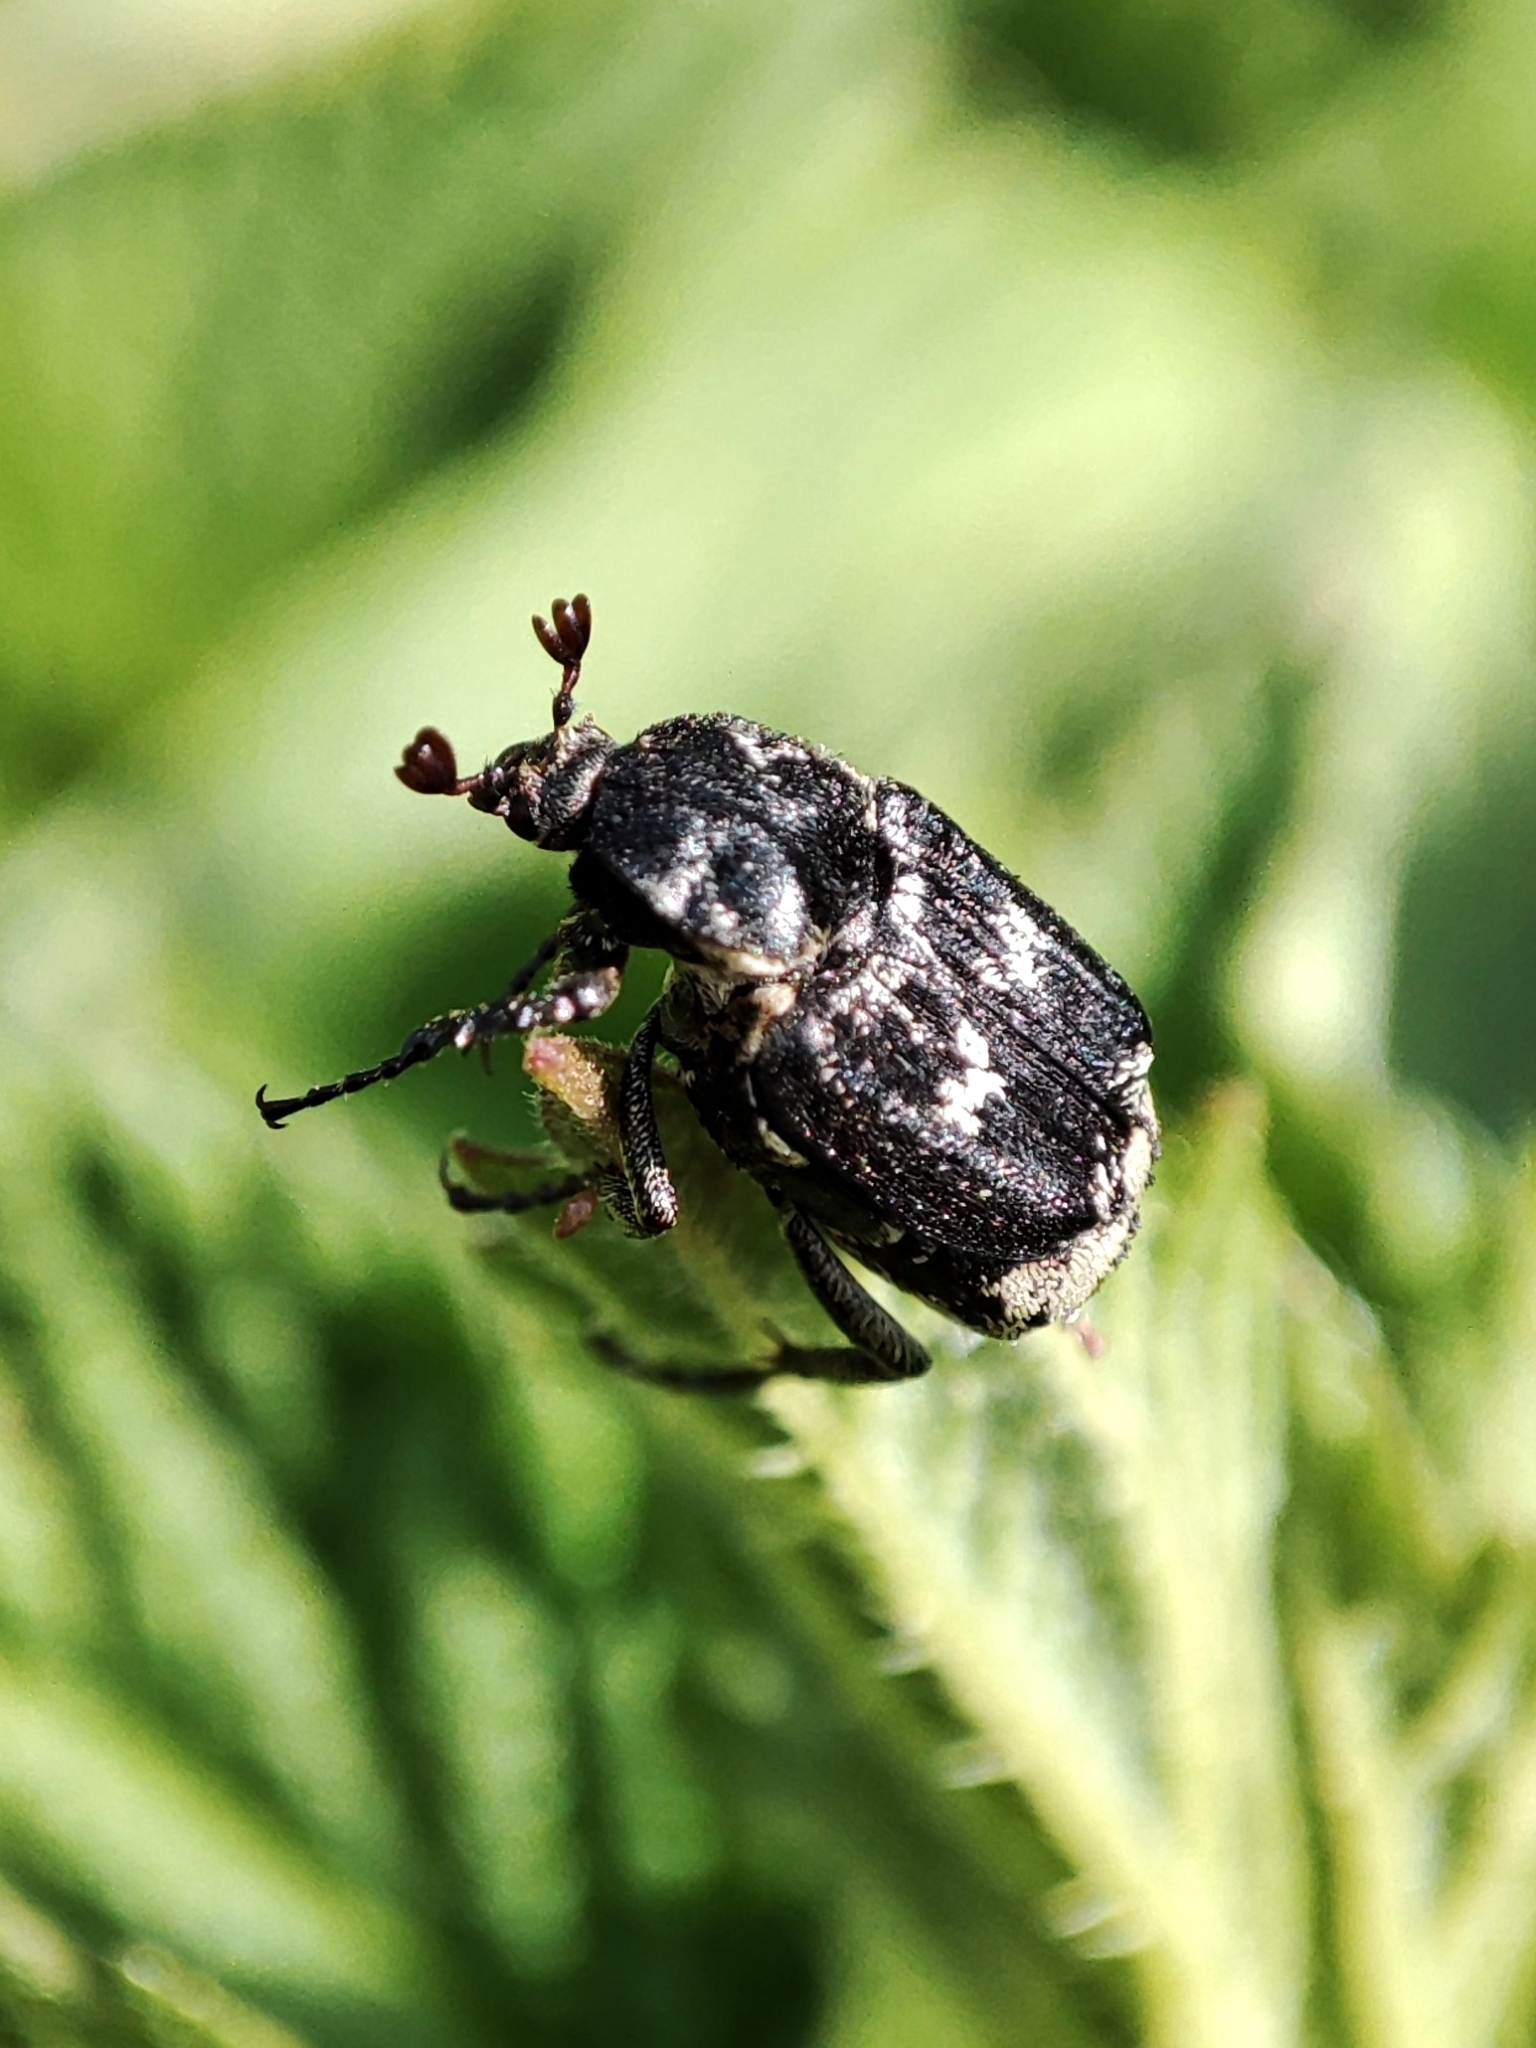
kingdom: Animalia
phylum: Arthropoda
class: Insecta
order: Coleoptera
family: Scarabaeidae
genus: Valgus
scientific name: Valgus hemipterus
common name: Bug flower chafer
